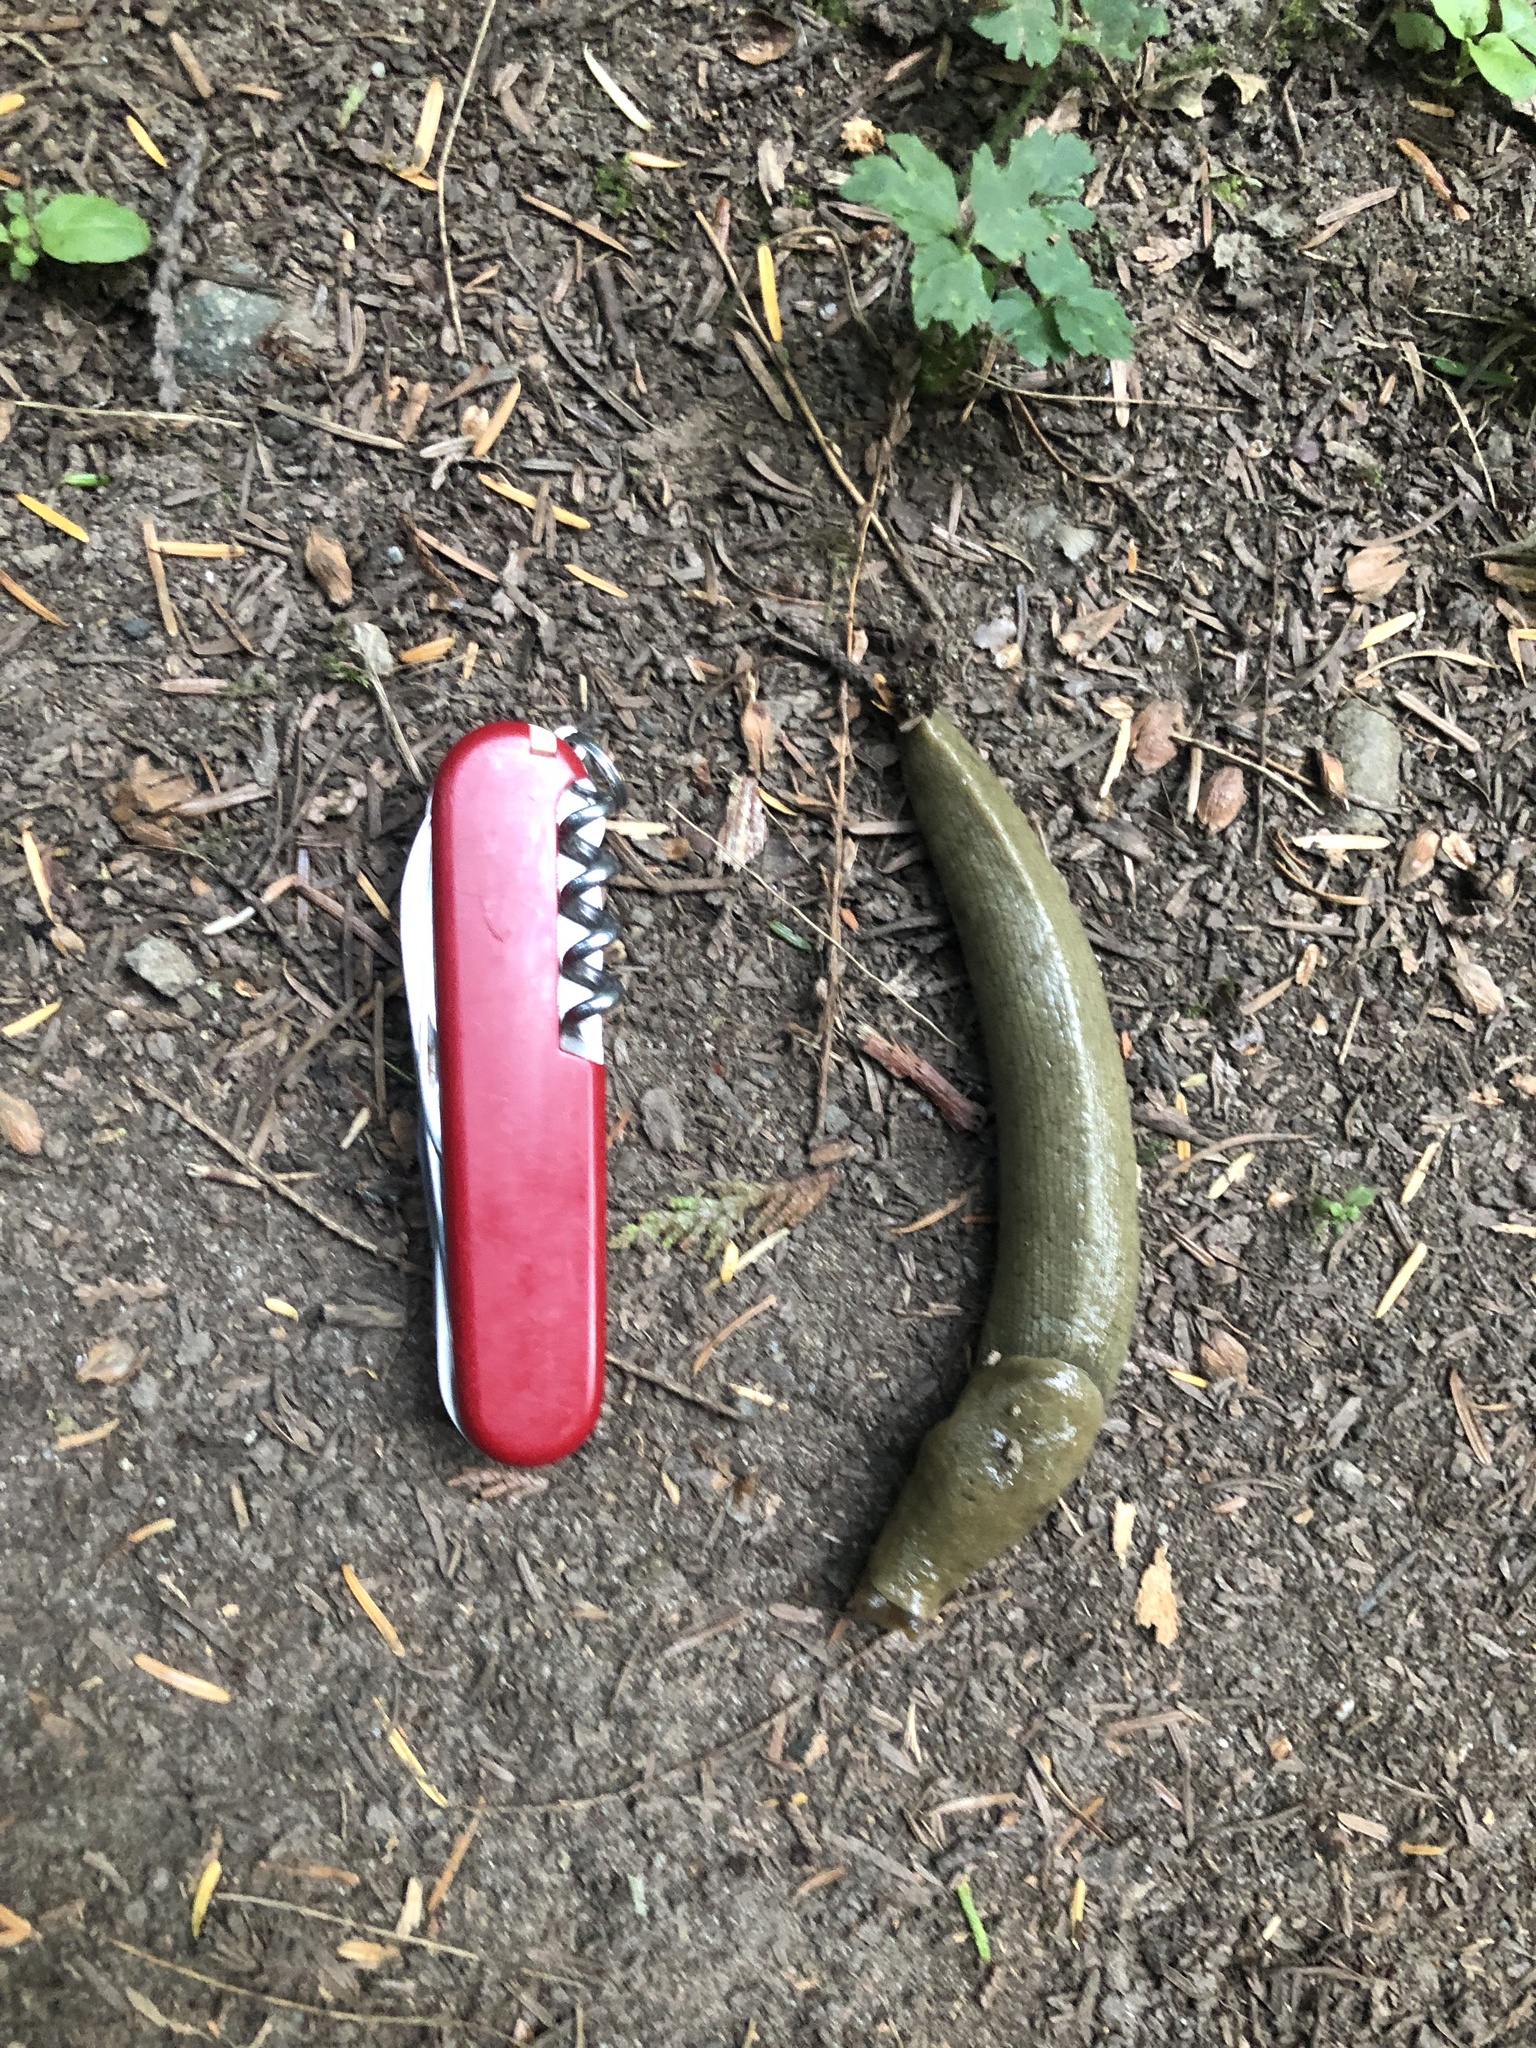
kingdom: Animalia
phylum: Mollusca
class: Gastropoda
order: Stylommatophora
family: Ariolimacidae
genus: Ariolimax
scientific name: Ariolimax columbianus
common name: Pacific banana slug
